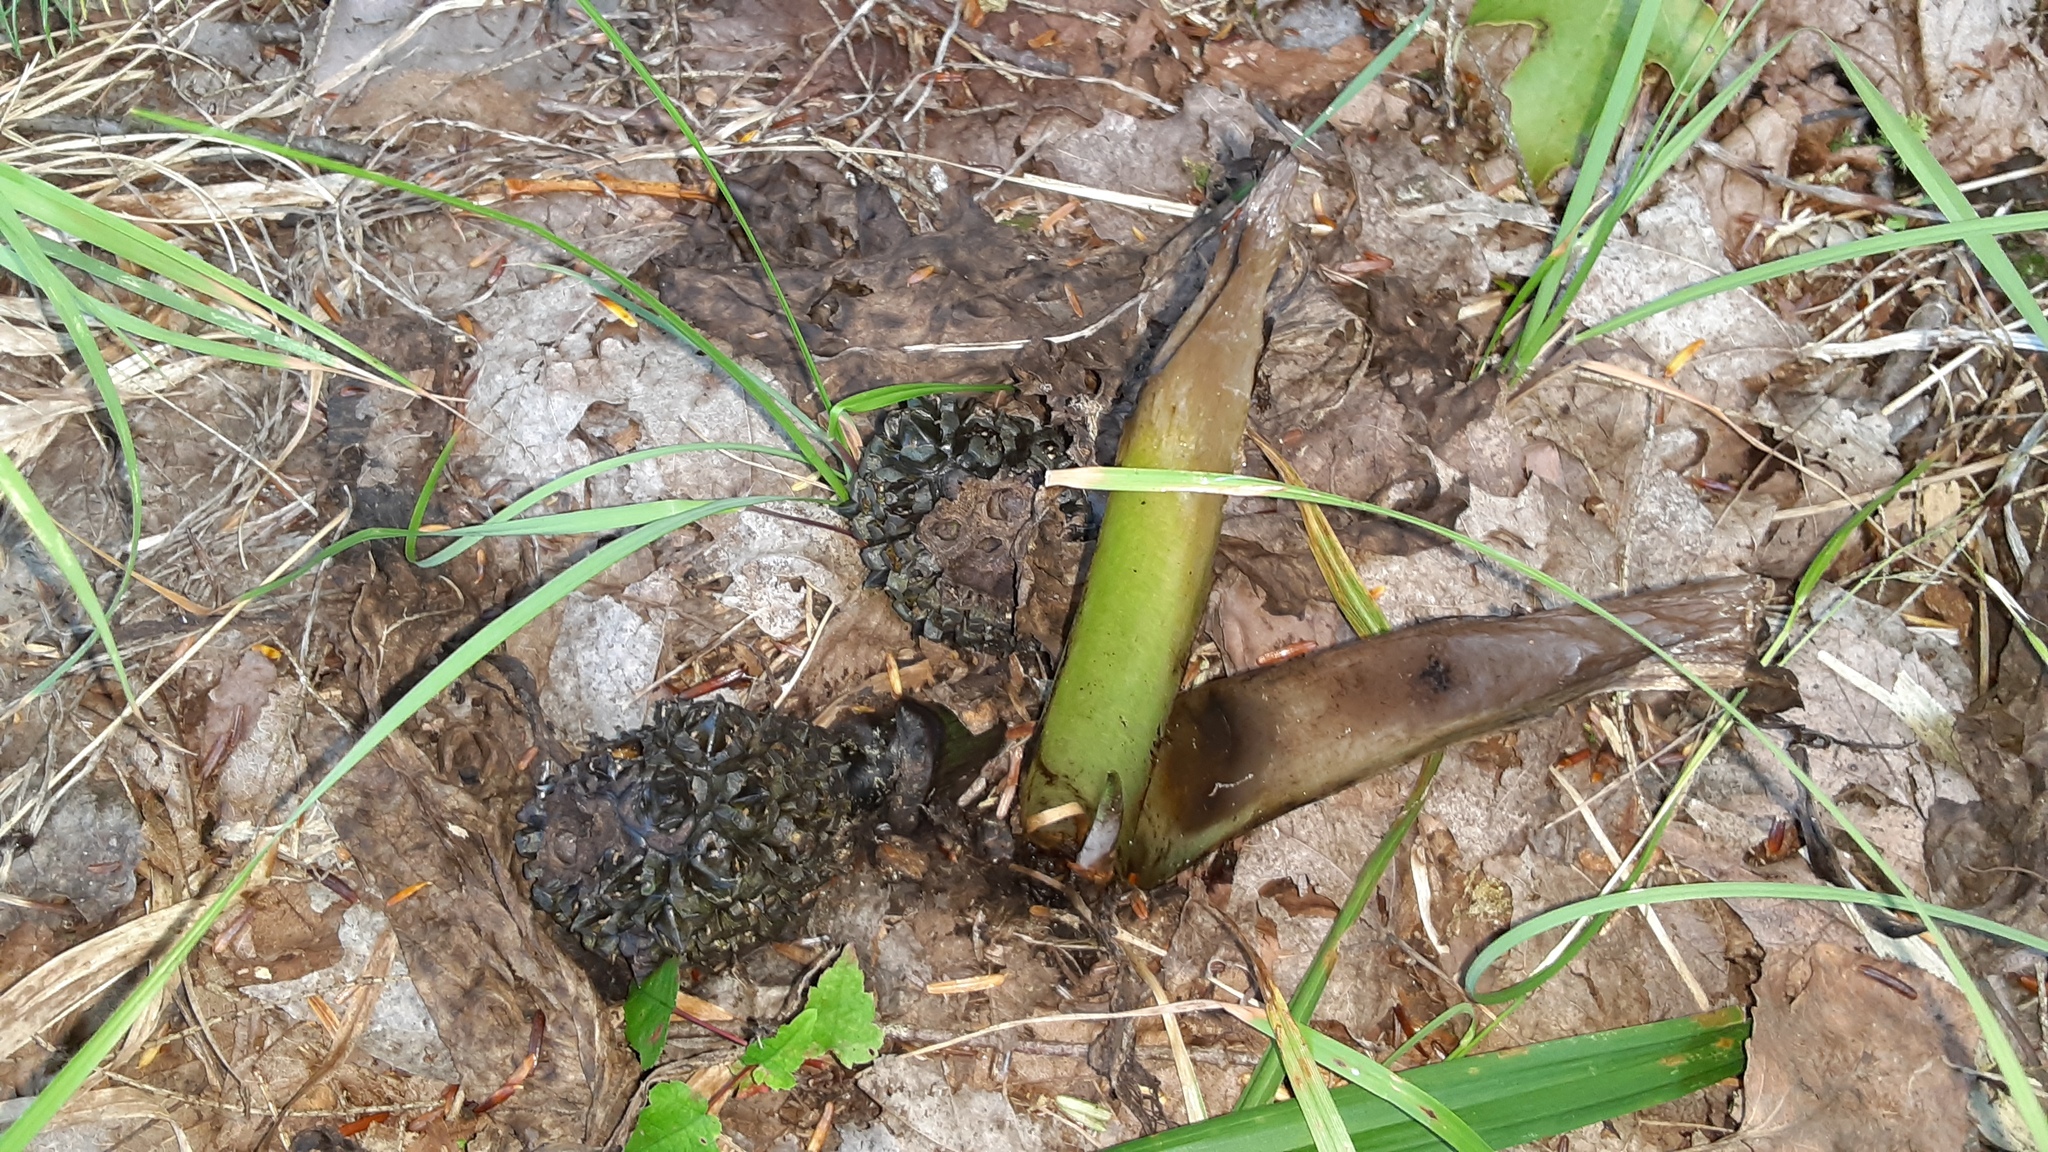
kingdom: Plantae
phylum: Tracheophyta
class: Liliopsida
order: Alismatales
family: Araceae
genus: Symplocarpus
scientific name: Symplocarpus foetidus
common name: Eastern skunk cabbage
